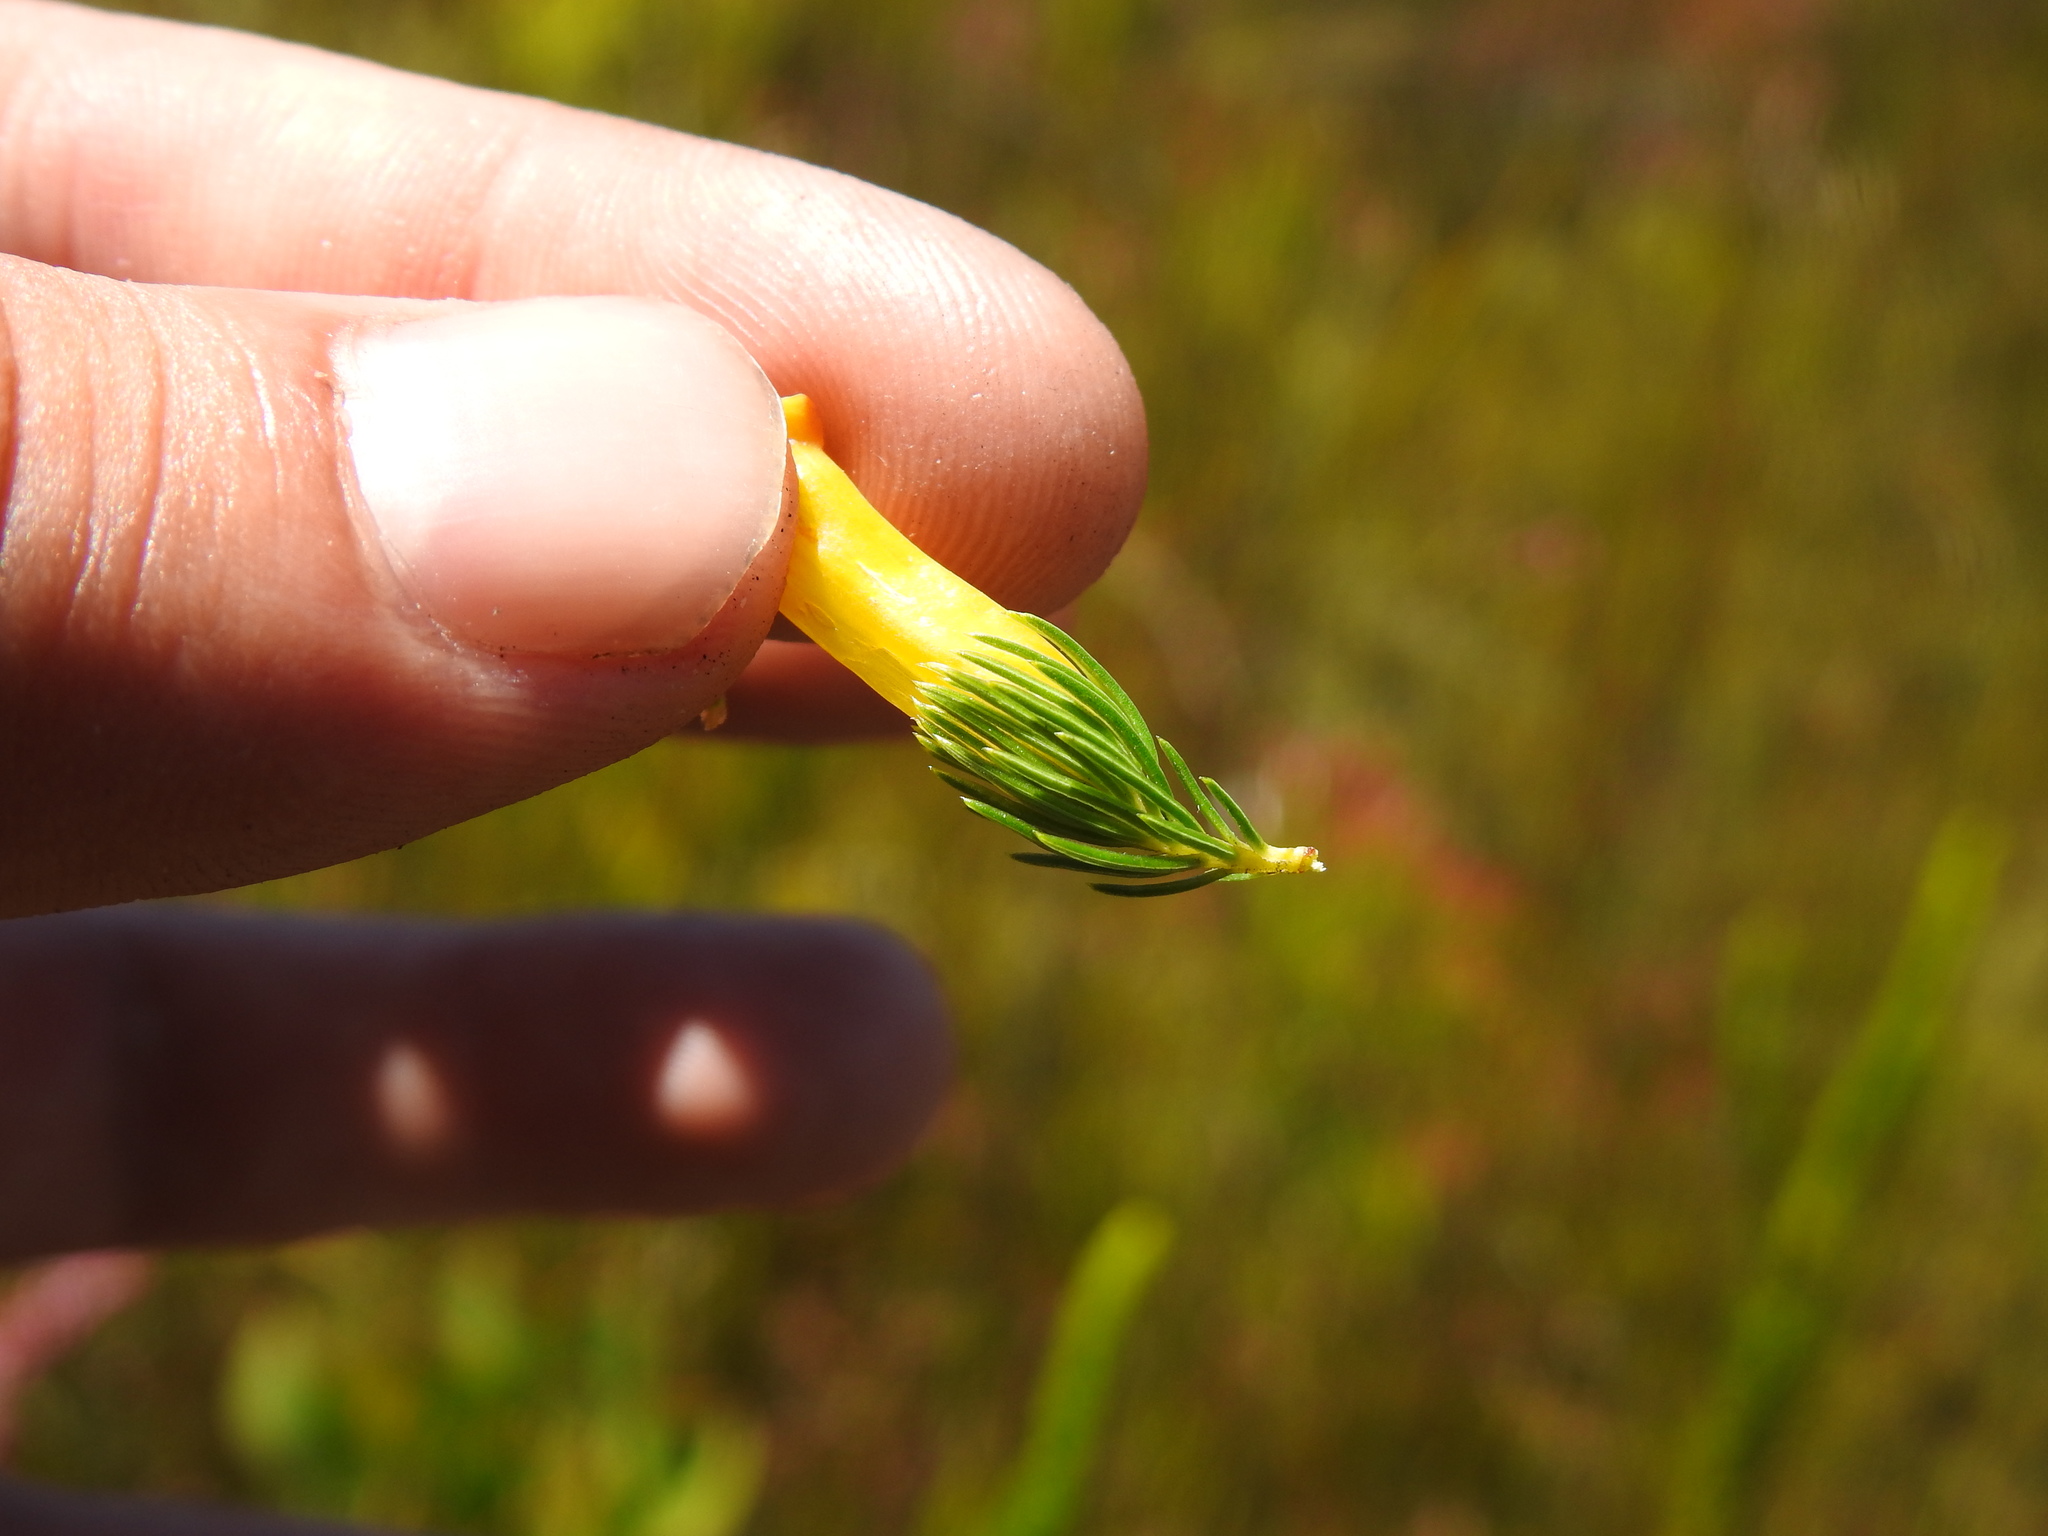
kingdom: Plantae
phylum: Tracheophyta
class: Magnoliopsida
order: Ericales
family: Ericaceae
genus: Erica
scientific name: Erica patersonia
